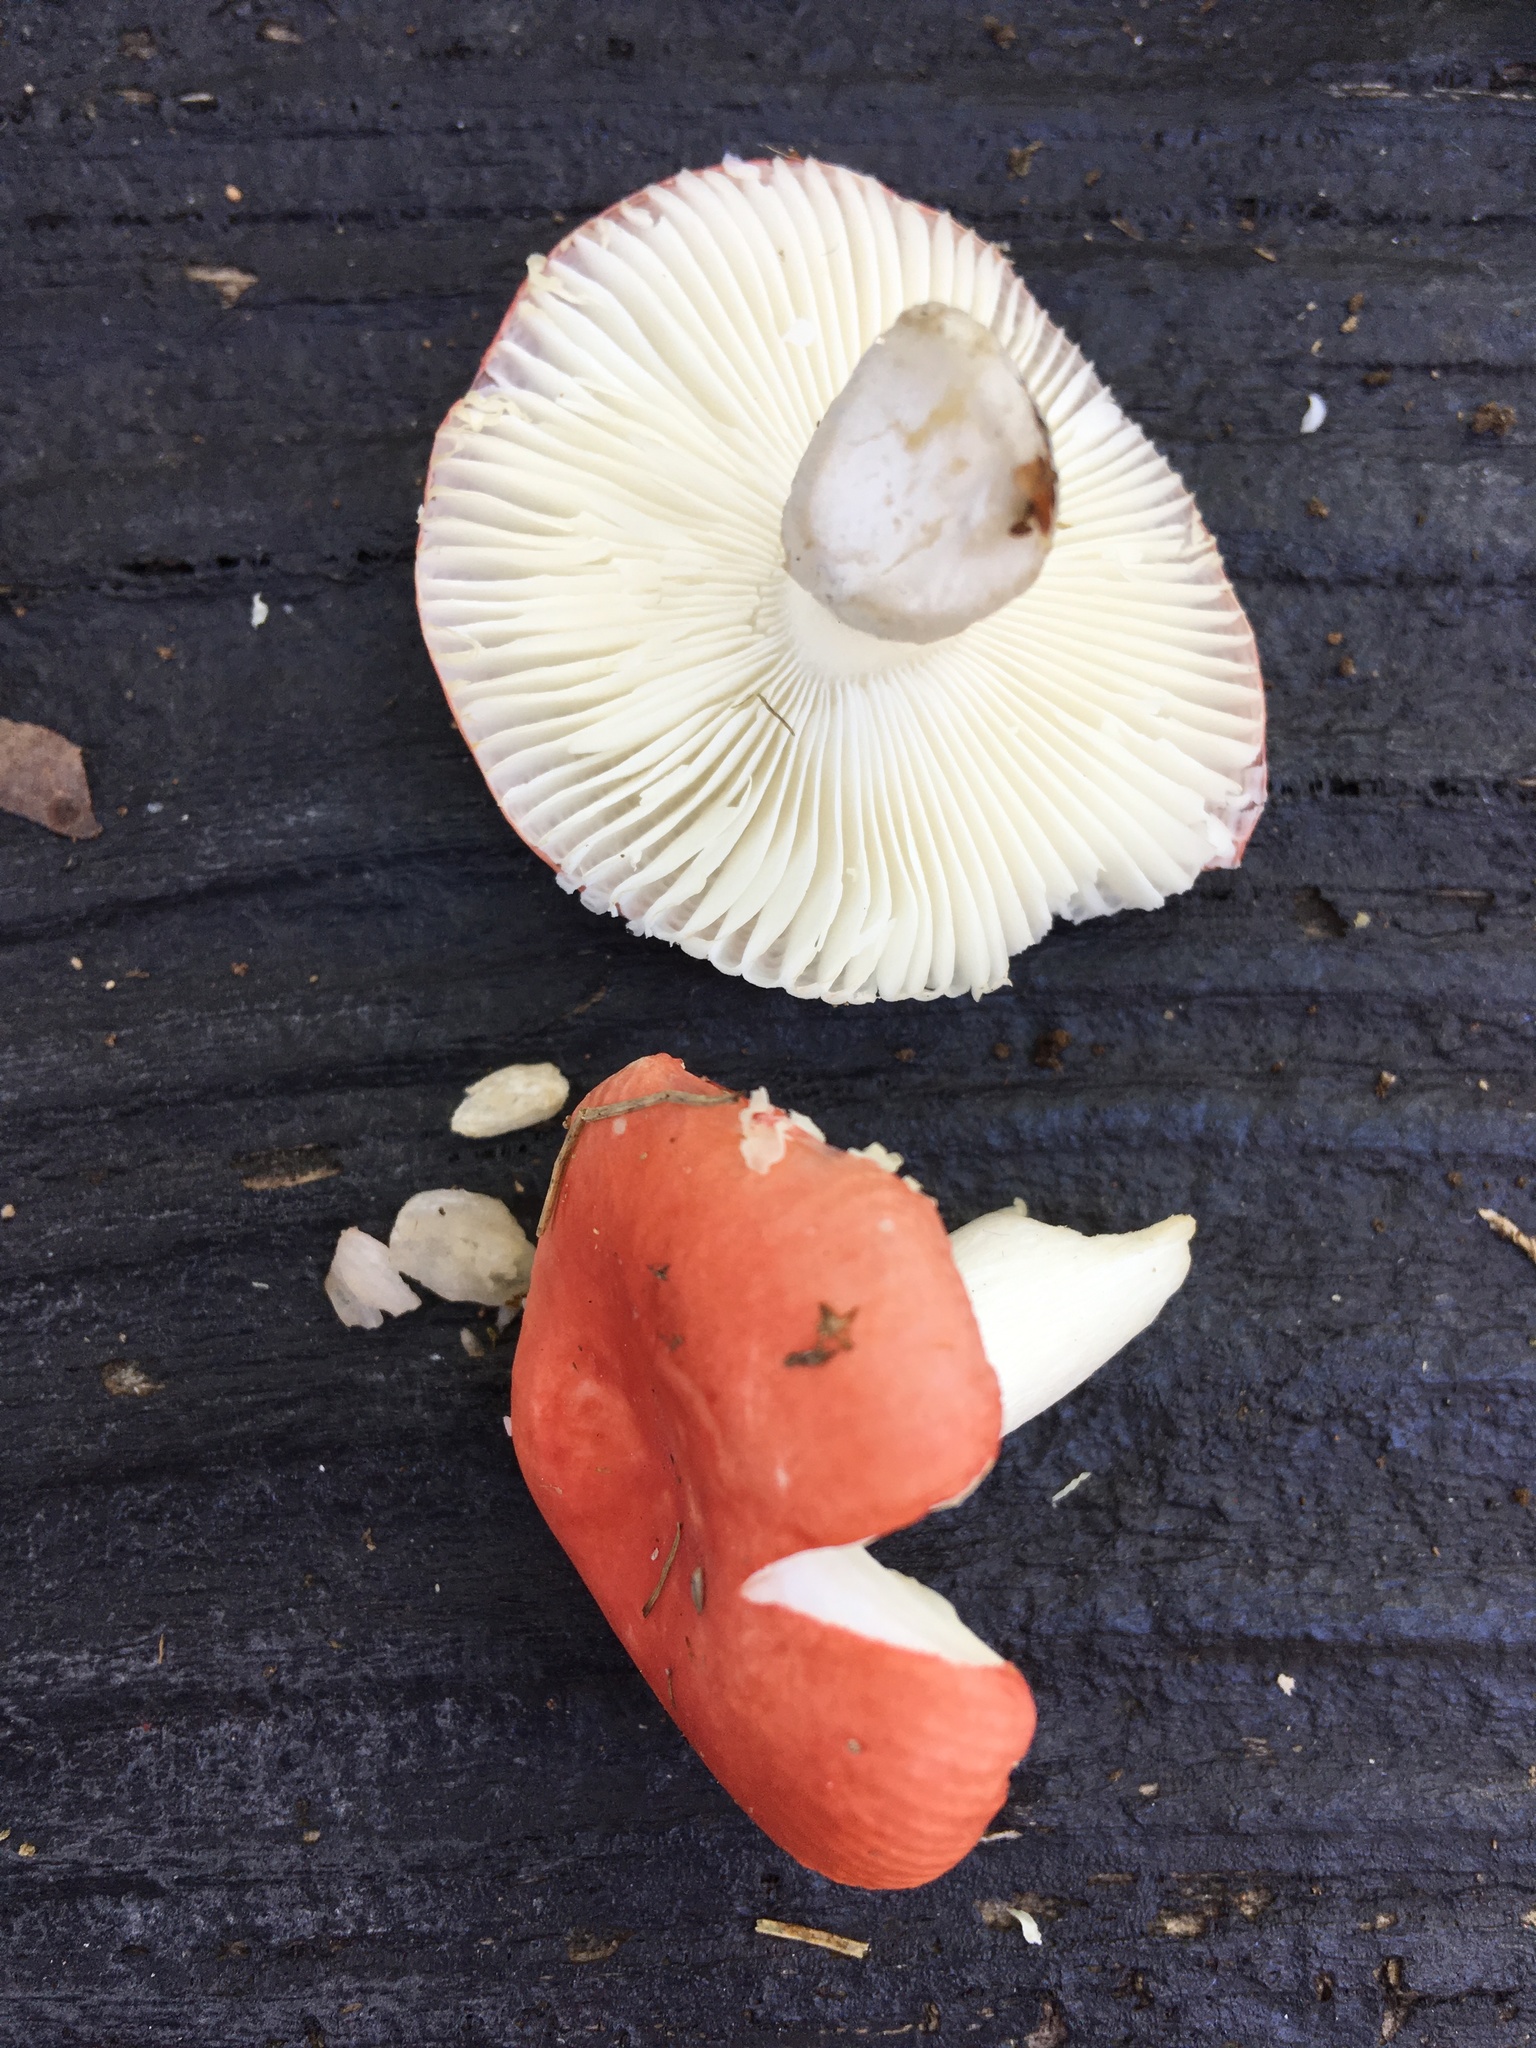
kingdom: Fungi
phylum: Basidiomycota
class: Agaricomycetes
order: Russulales
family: Russulaceae
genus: Russula
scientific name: Russula aquosa
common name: Red swamp brittlegill
